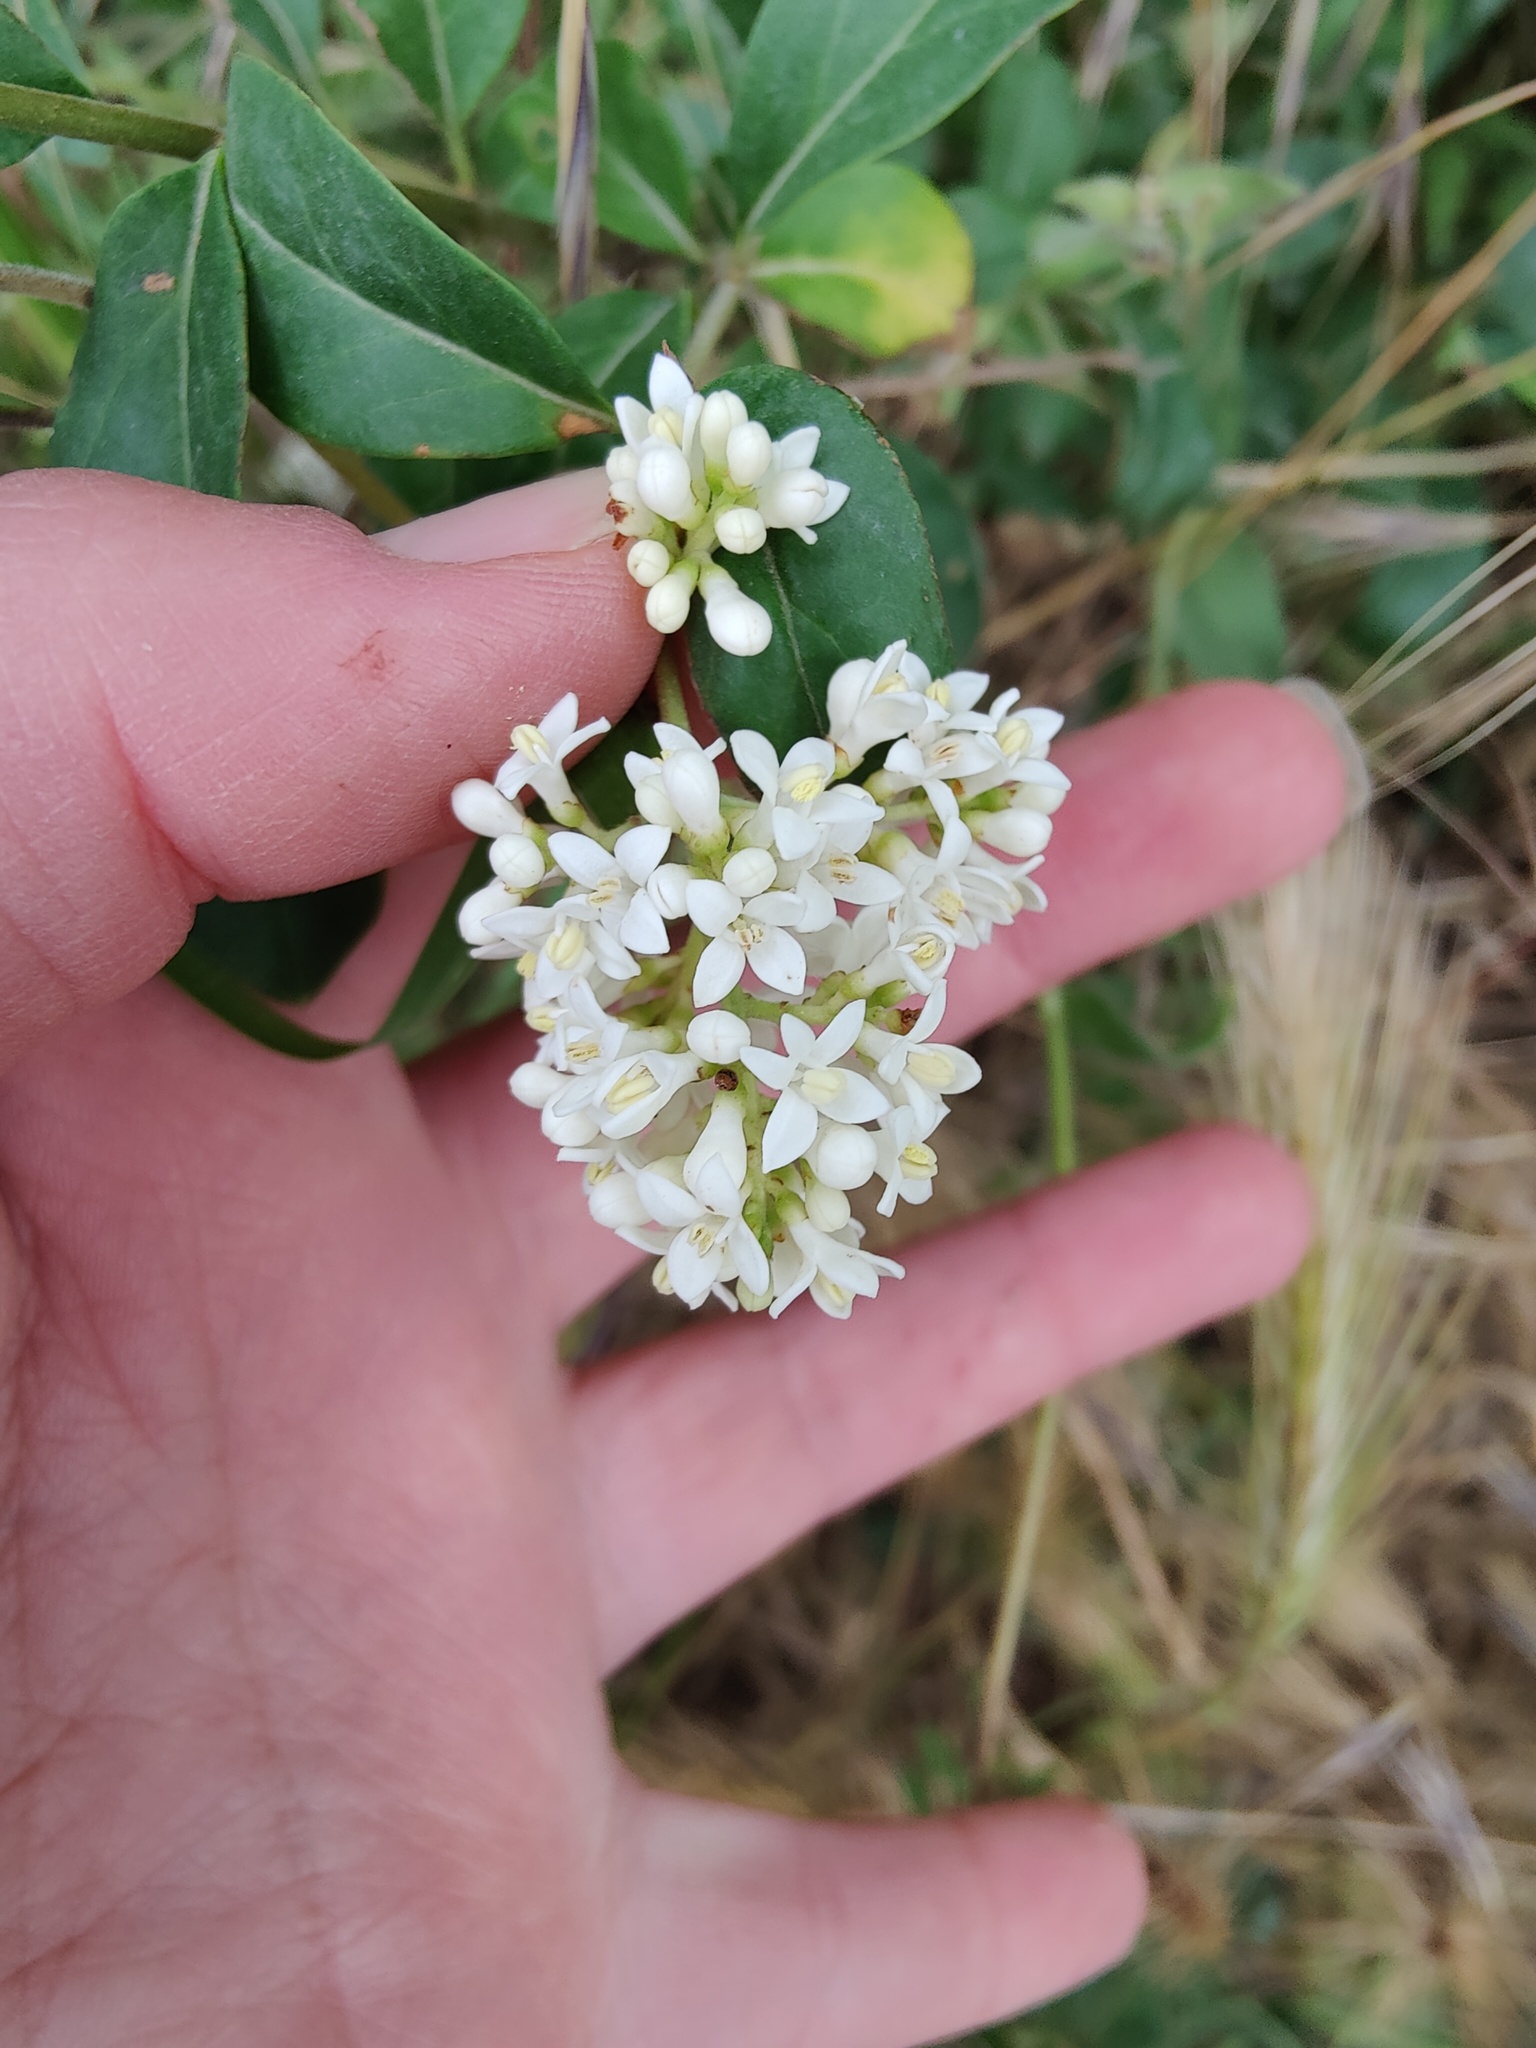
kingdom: Plantae
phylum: Tracheophyta
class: Magnoliopsida
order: Lamiales
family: Oleaceae
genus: Ligustrum
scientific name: Ligustrum vulgare
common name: Wild privet
